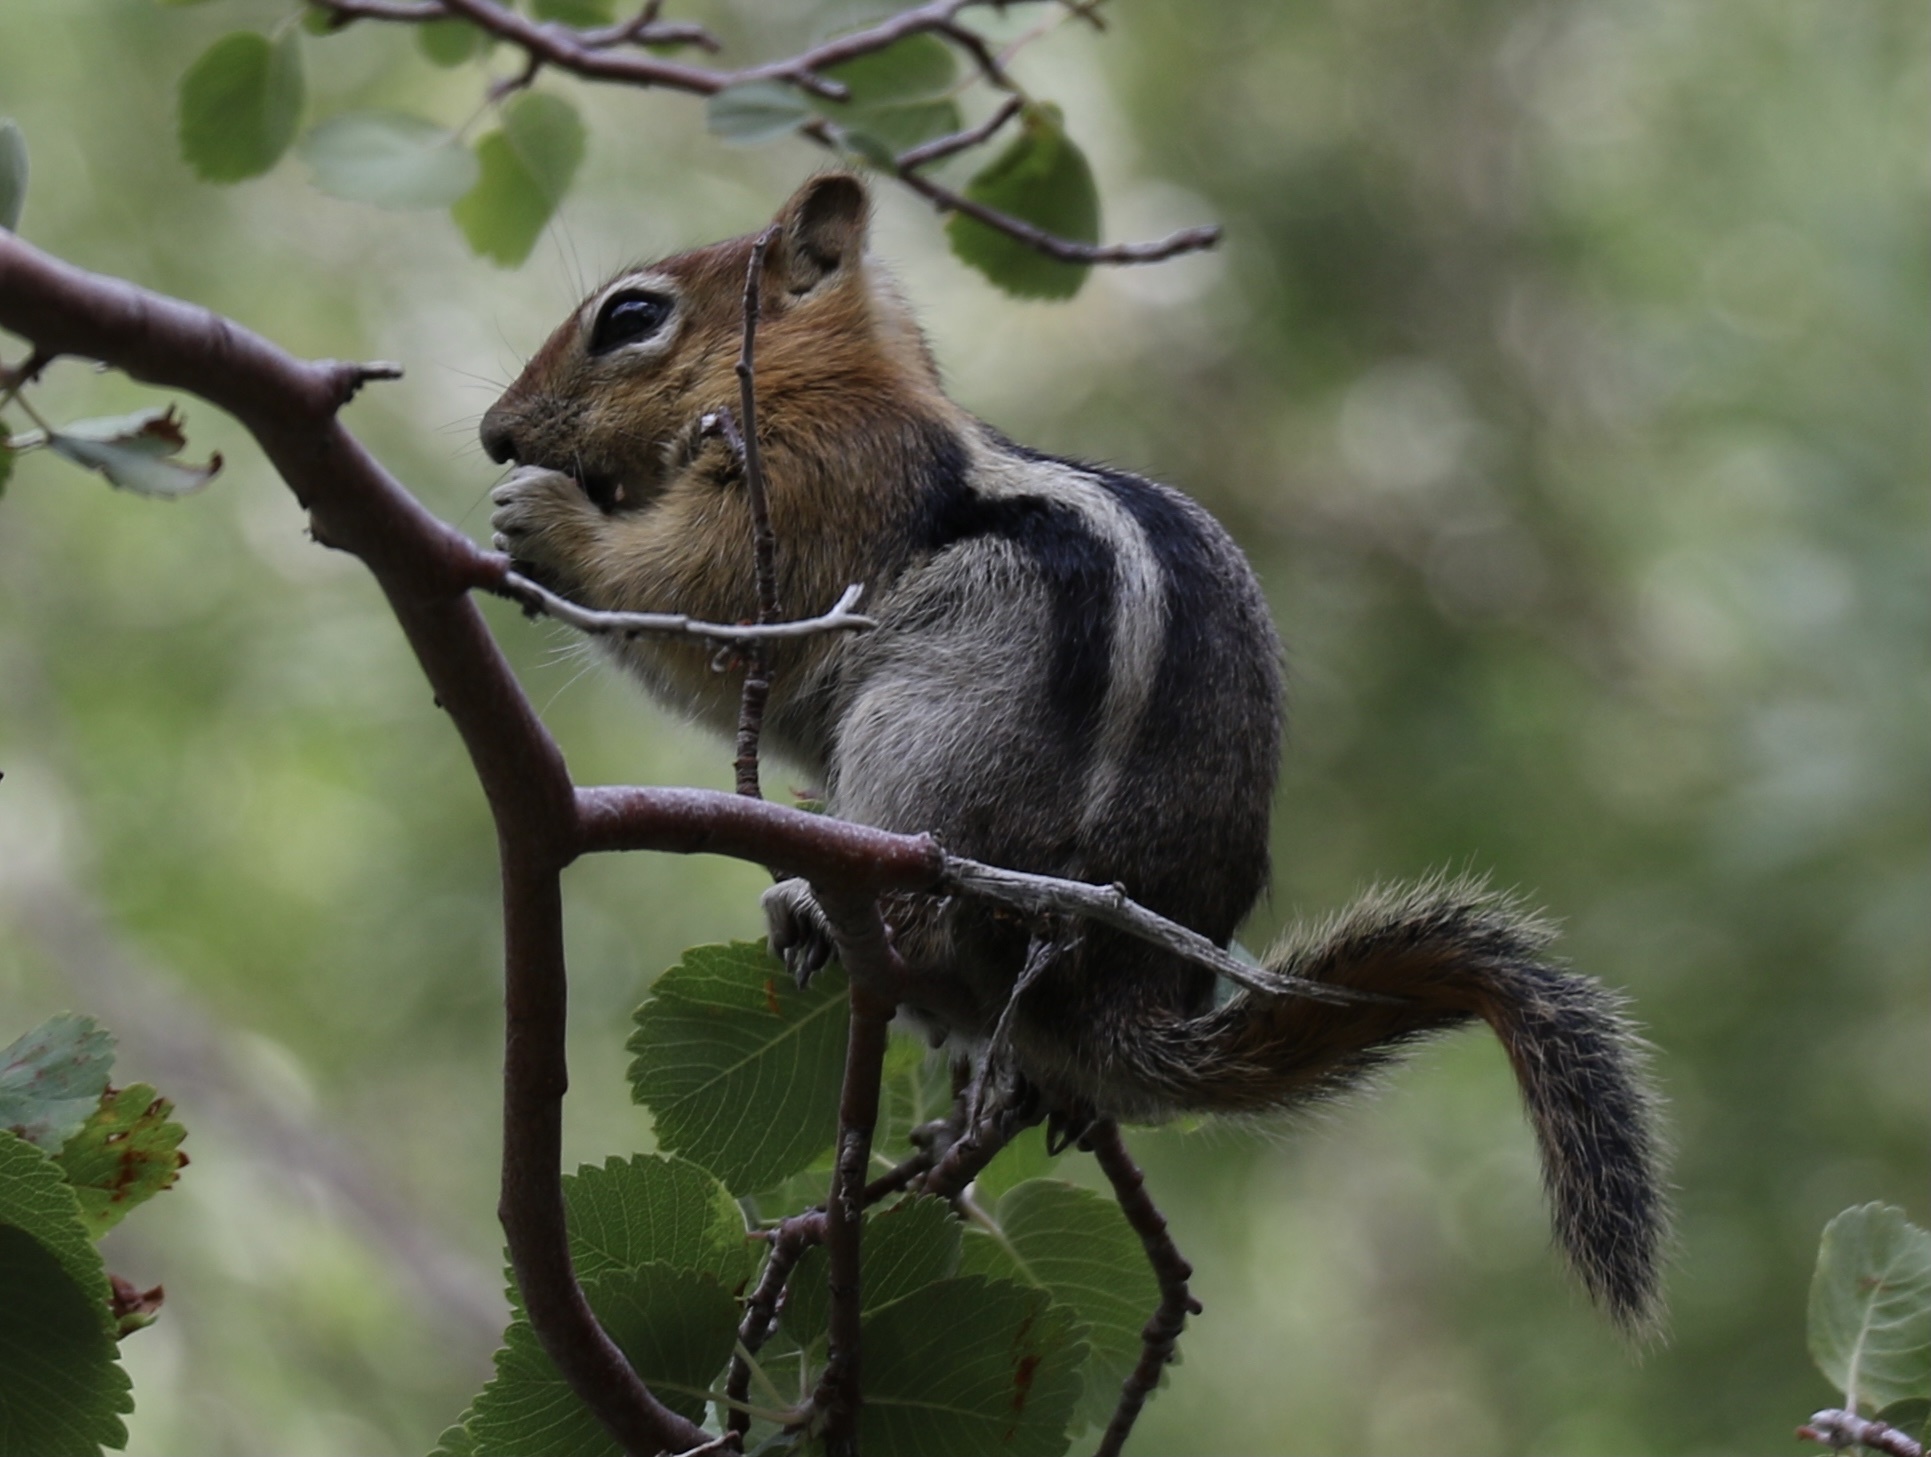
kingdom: Animalia
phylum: Chordata
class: Mammalia
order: Rodentia
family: Sciuridae
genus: Callospermophilus
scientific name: Callospermophilus lateralis
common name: Golden-mantled ground squirrel
